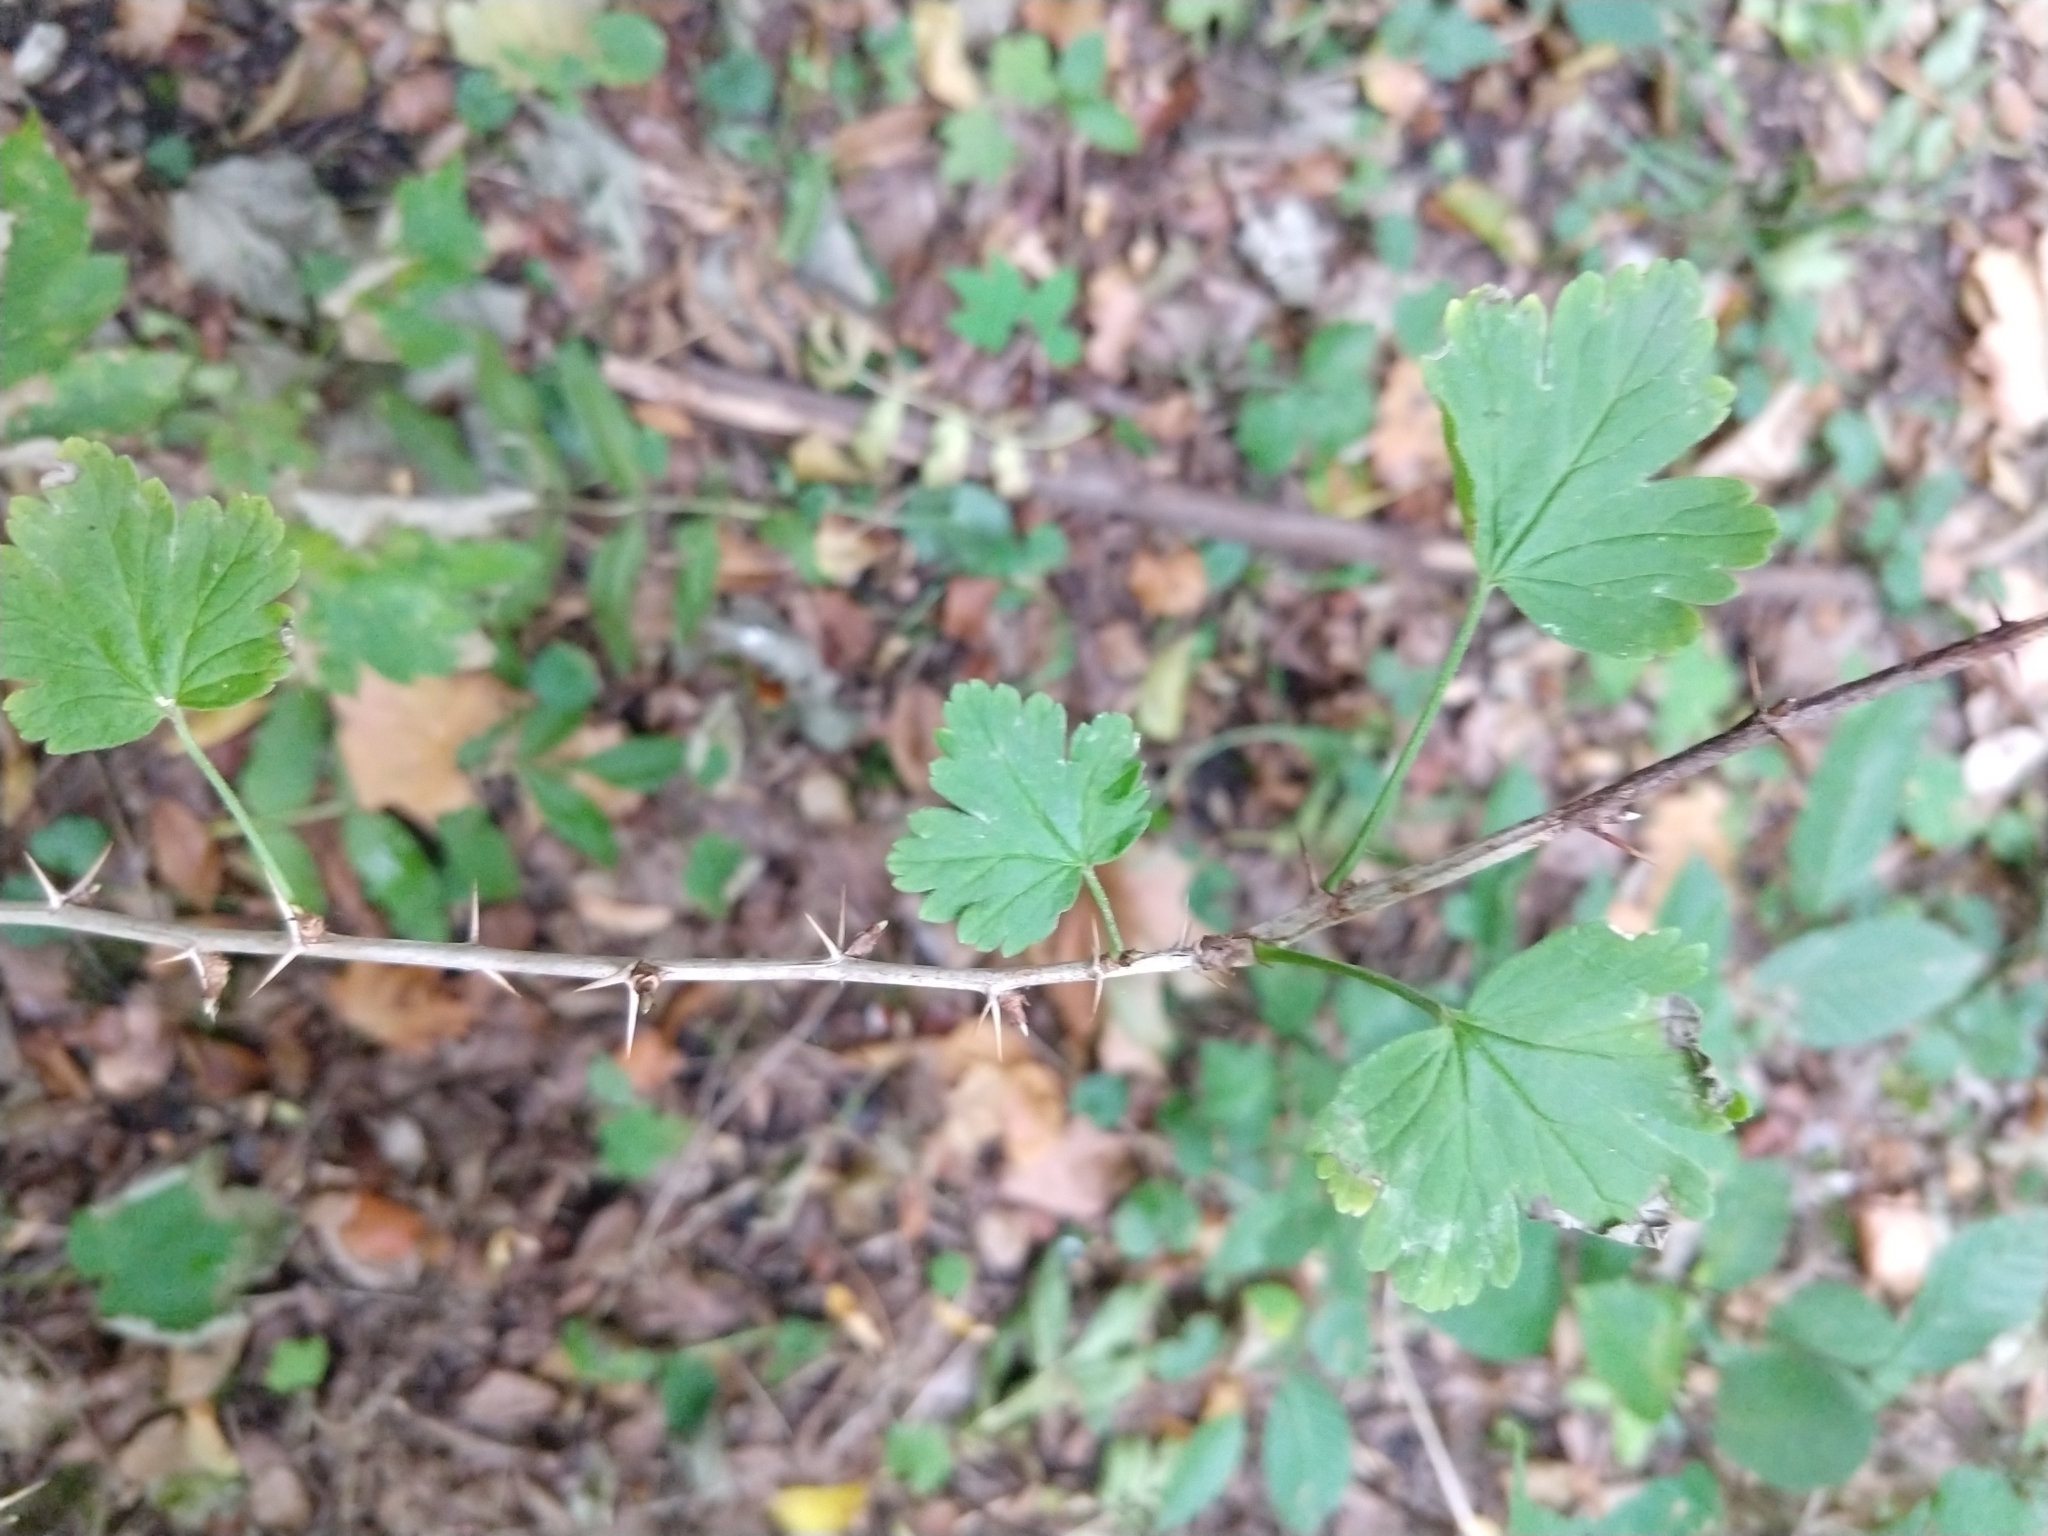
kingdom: Plantae
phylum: Tracheophyta
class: Magnoliopsida
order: Saxifragales
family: Grossulariaceae
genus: Ribes
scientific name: Ribes uva-crispa
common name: Gooseberry
